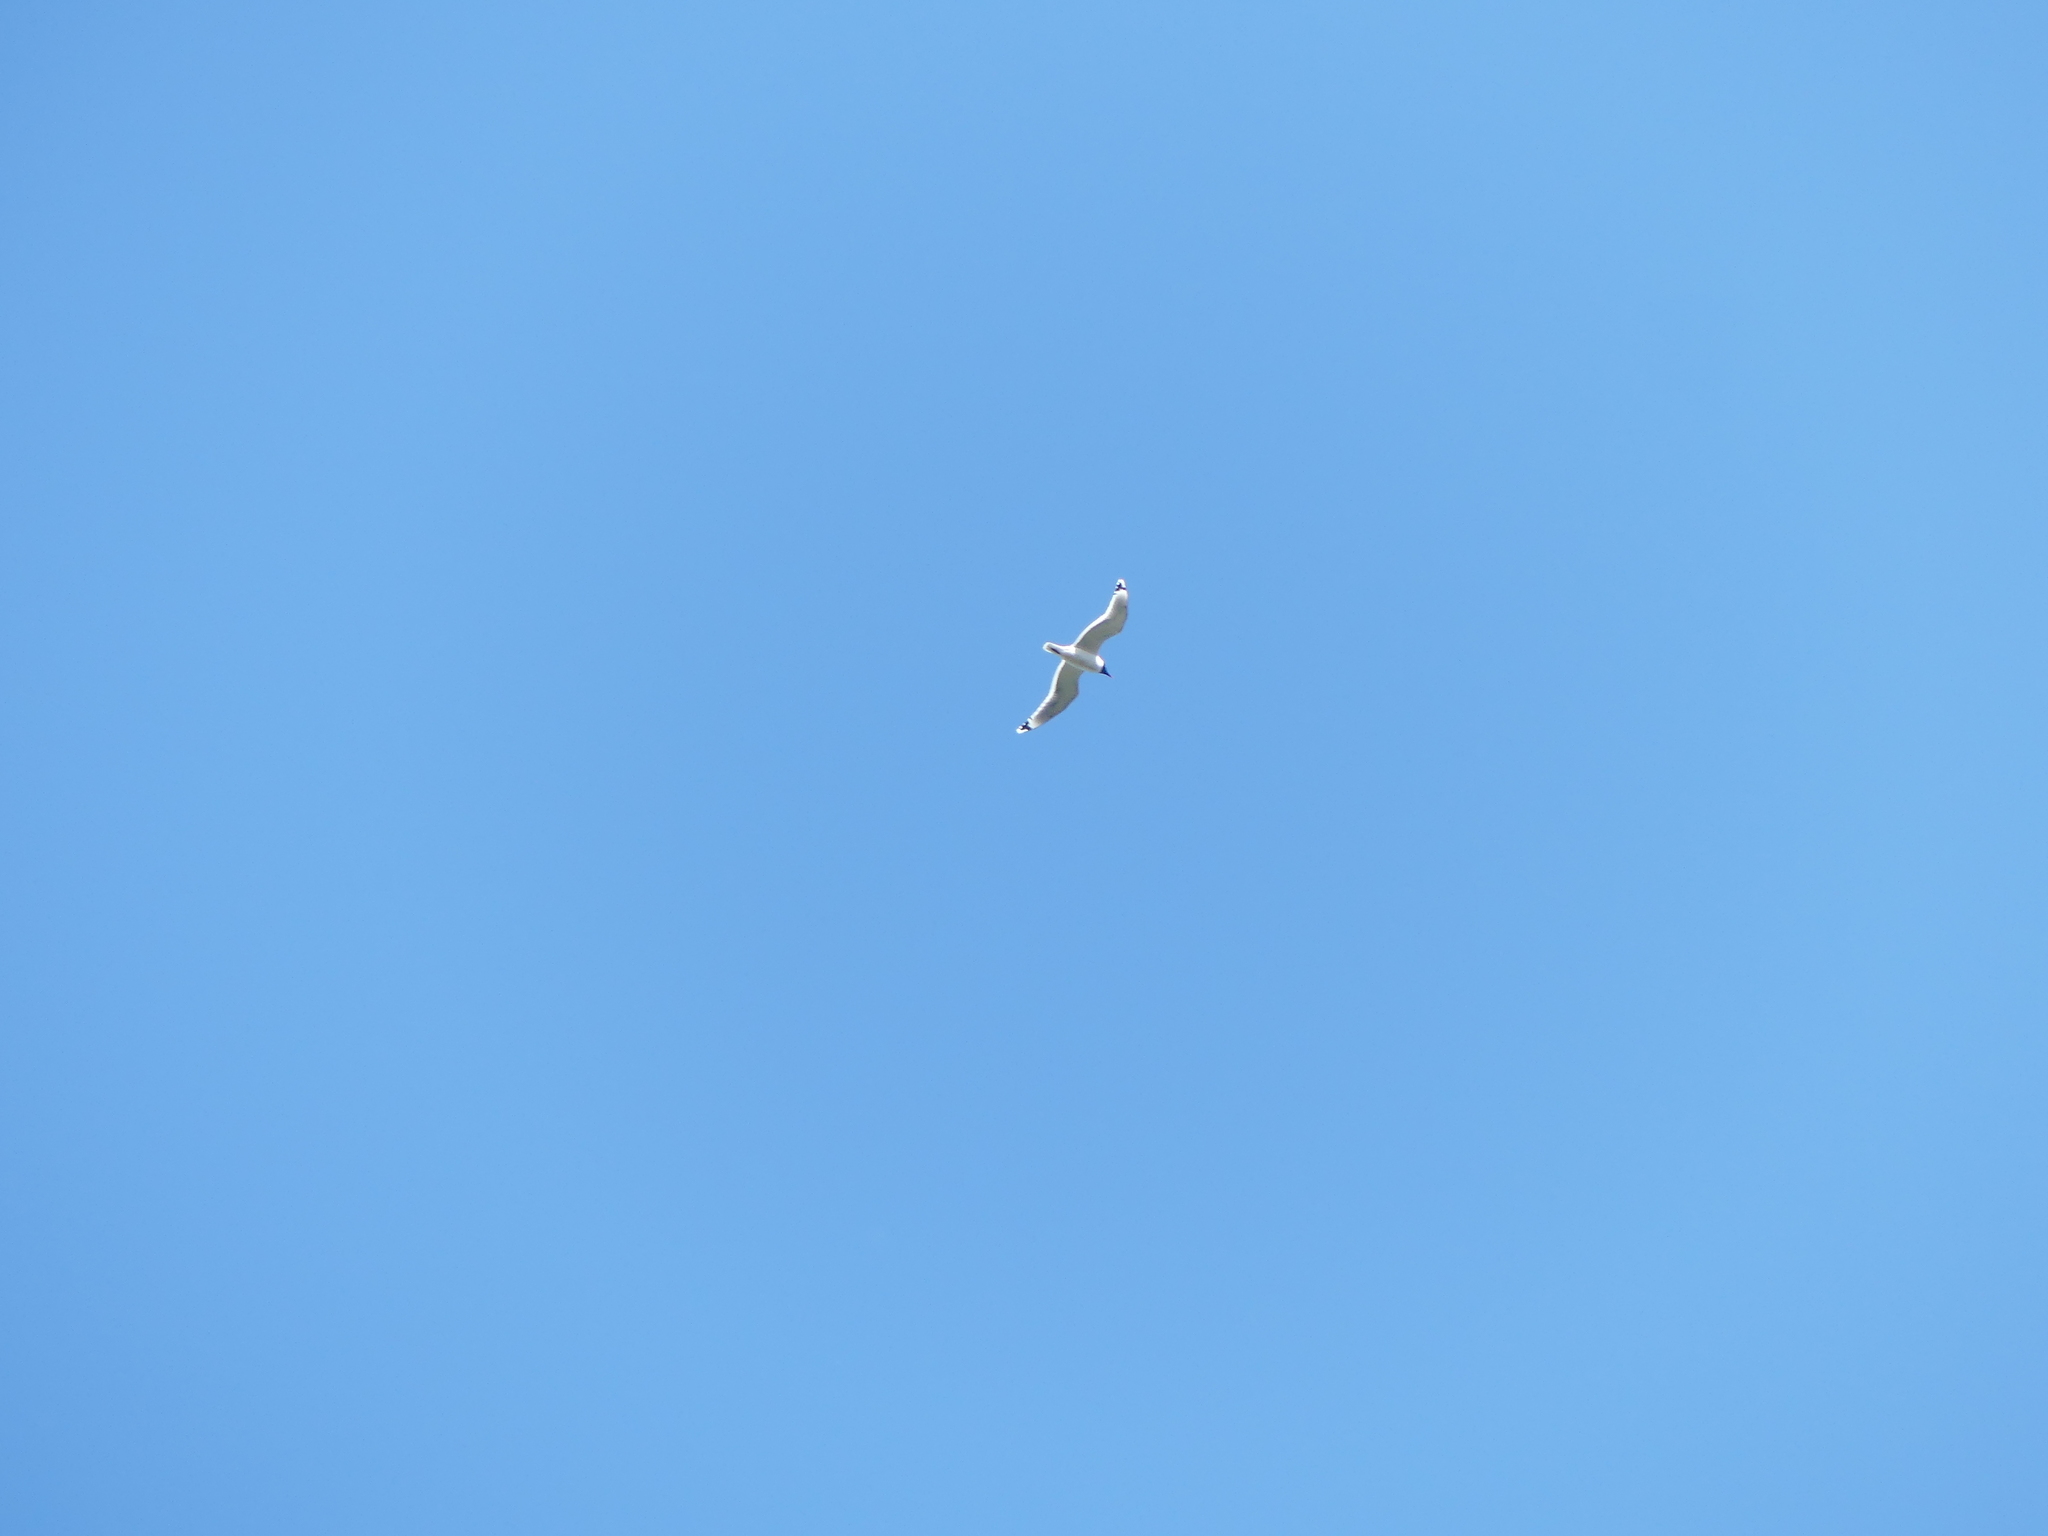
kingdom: Animalia
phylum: Chordata
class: Aves
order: Charadriiformes
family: Laridae
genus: Leucophaeus
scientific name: Leucophaeus pipixcan
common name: Franklin's gull
